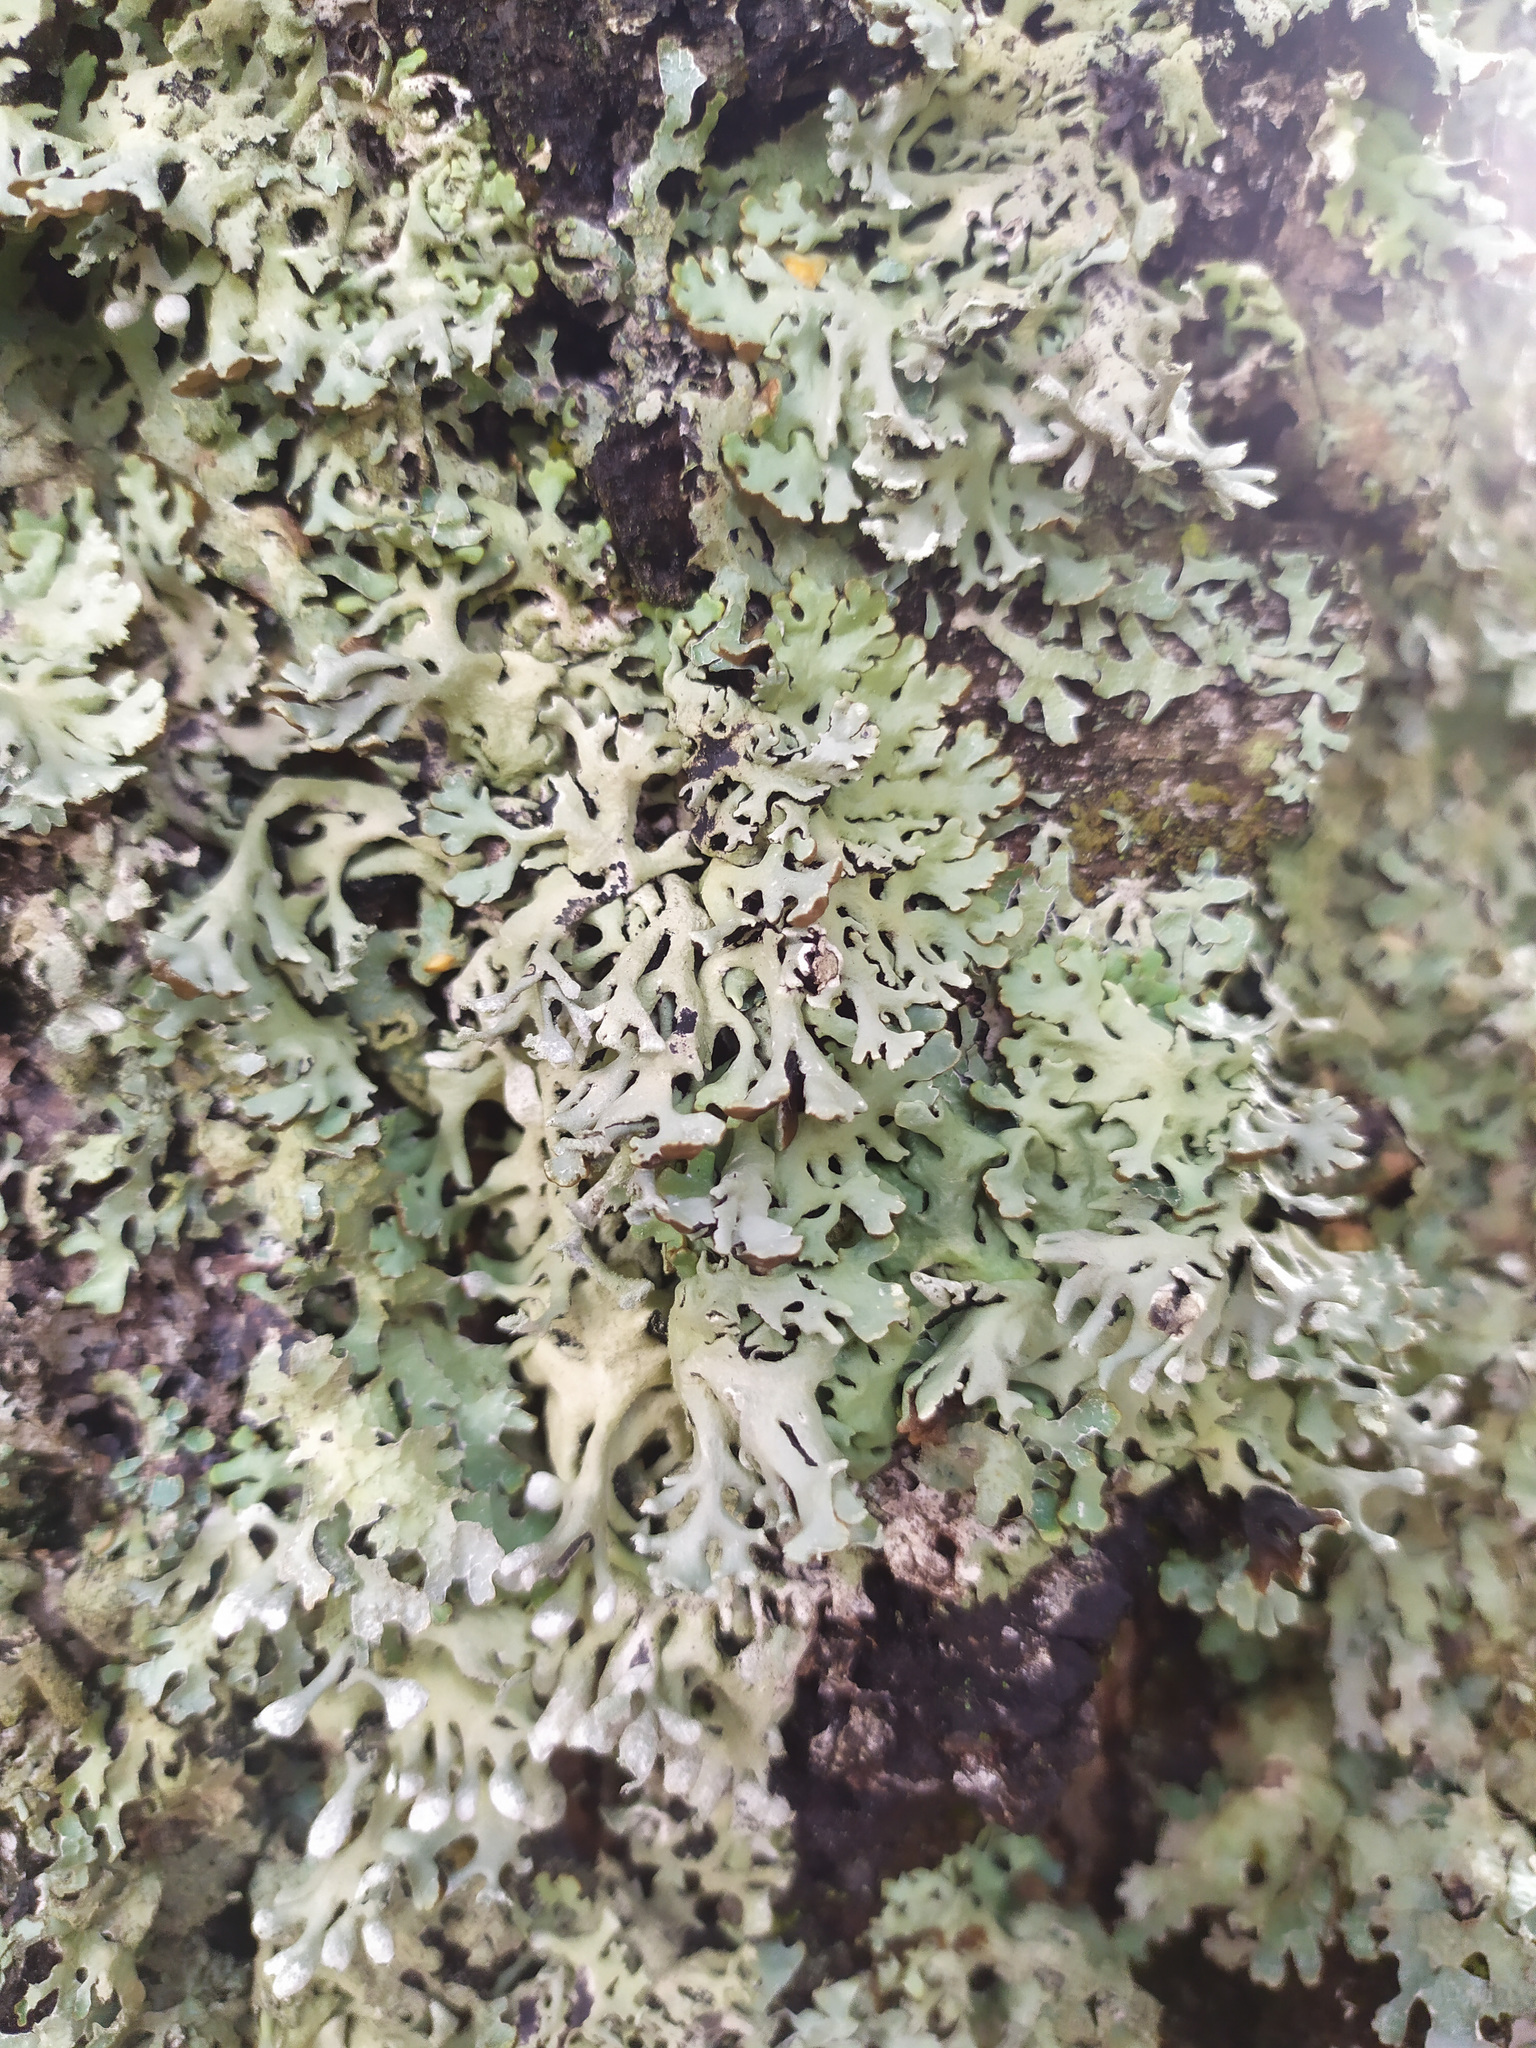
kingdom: Fungi
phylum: Ascomycota
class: Lecanoromycetes
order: Lecanorales
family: Parmeliaceae
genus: Hypogymnia
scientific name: Hypogymnia physodes
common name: Dark crottle
